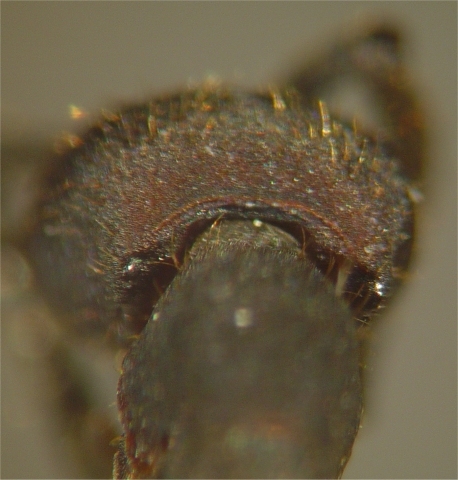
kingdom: Animalia
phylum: Arthropoda
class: Insecta
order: Hymenoptera
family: Formicidae
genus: Nomamyrmex
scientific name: Nomamyrmex esenbeckii
